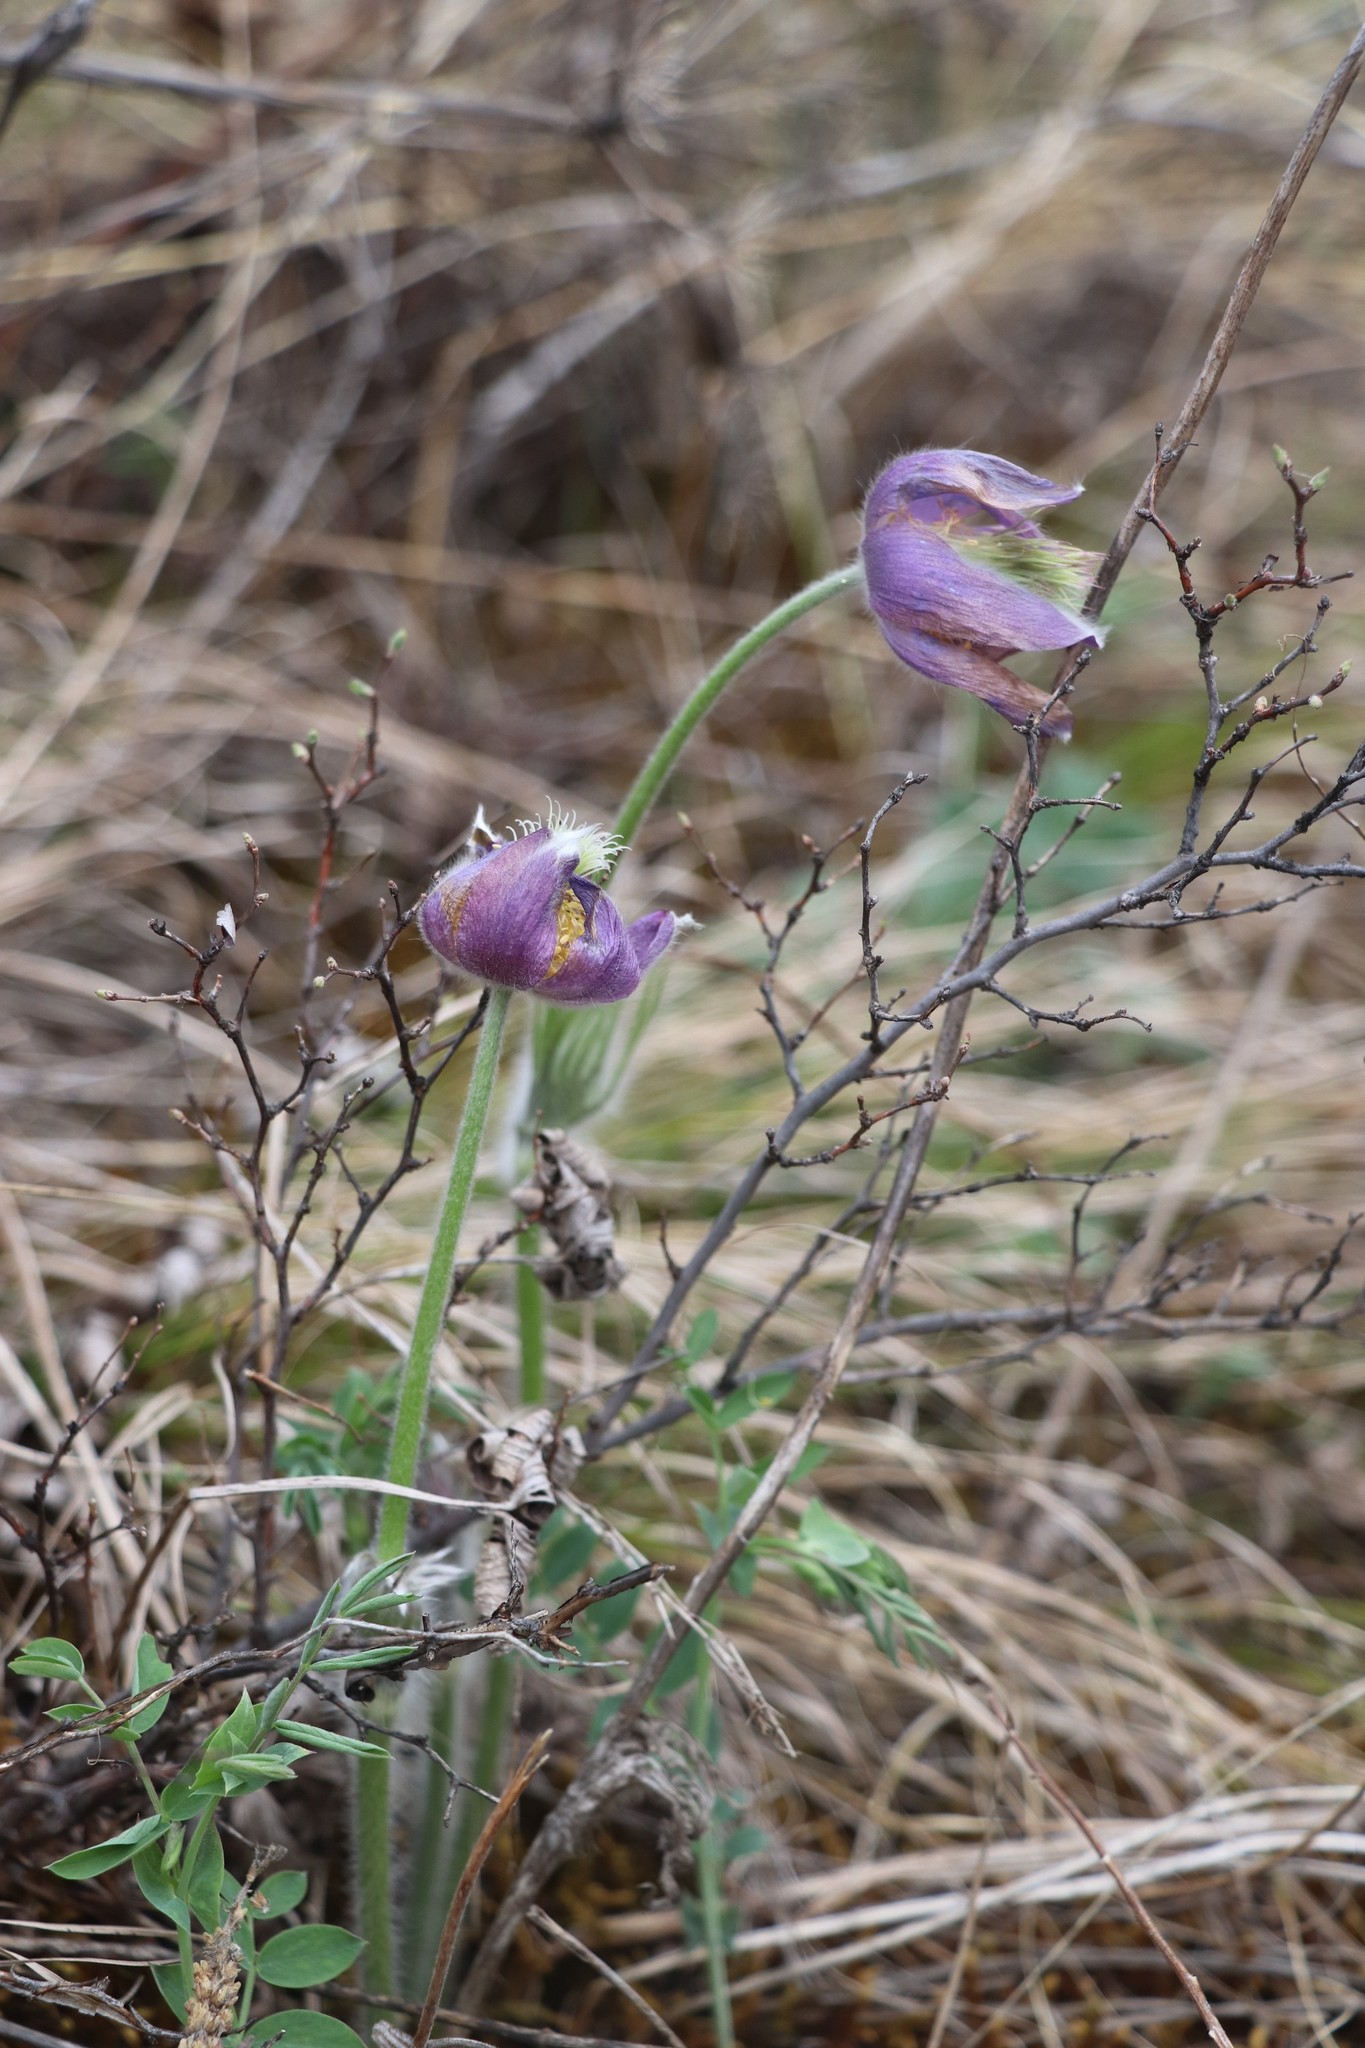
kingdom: Plantae
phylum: Tracheophyta
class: Magnoliopsida
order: Ranunculales
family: Ranunculaceae
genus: Pulsatilla
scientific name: Pulsatilla patens
